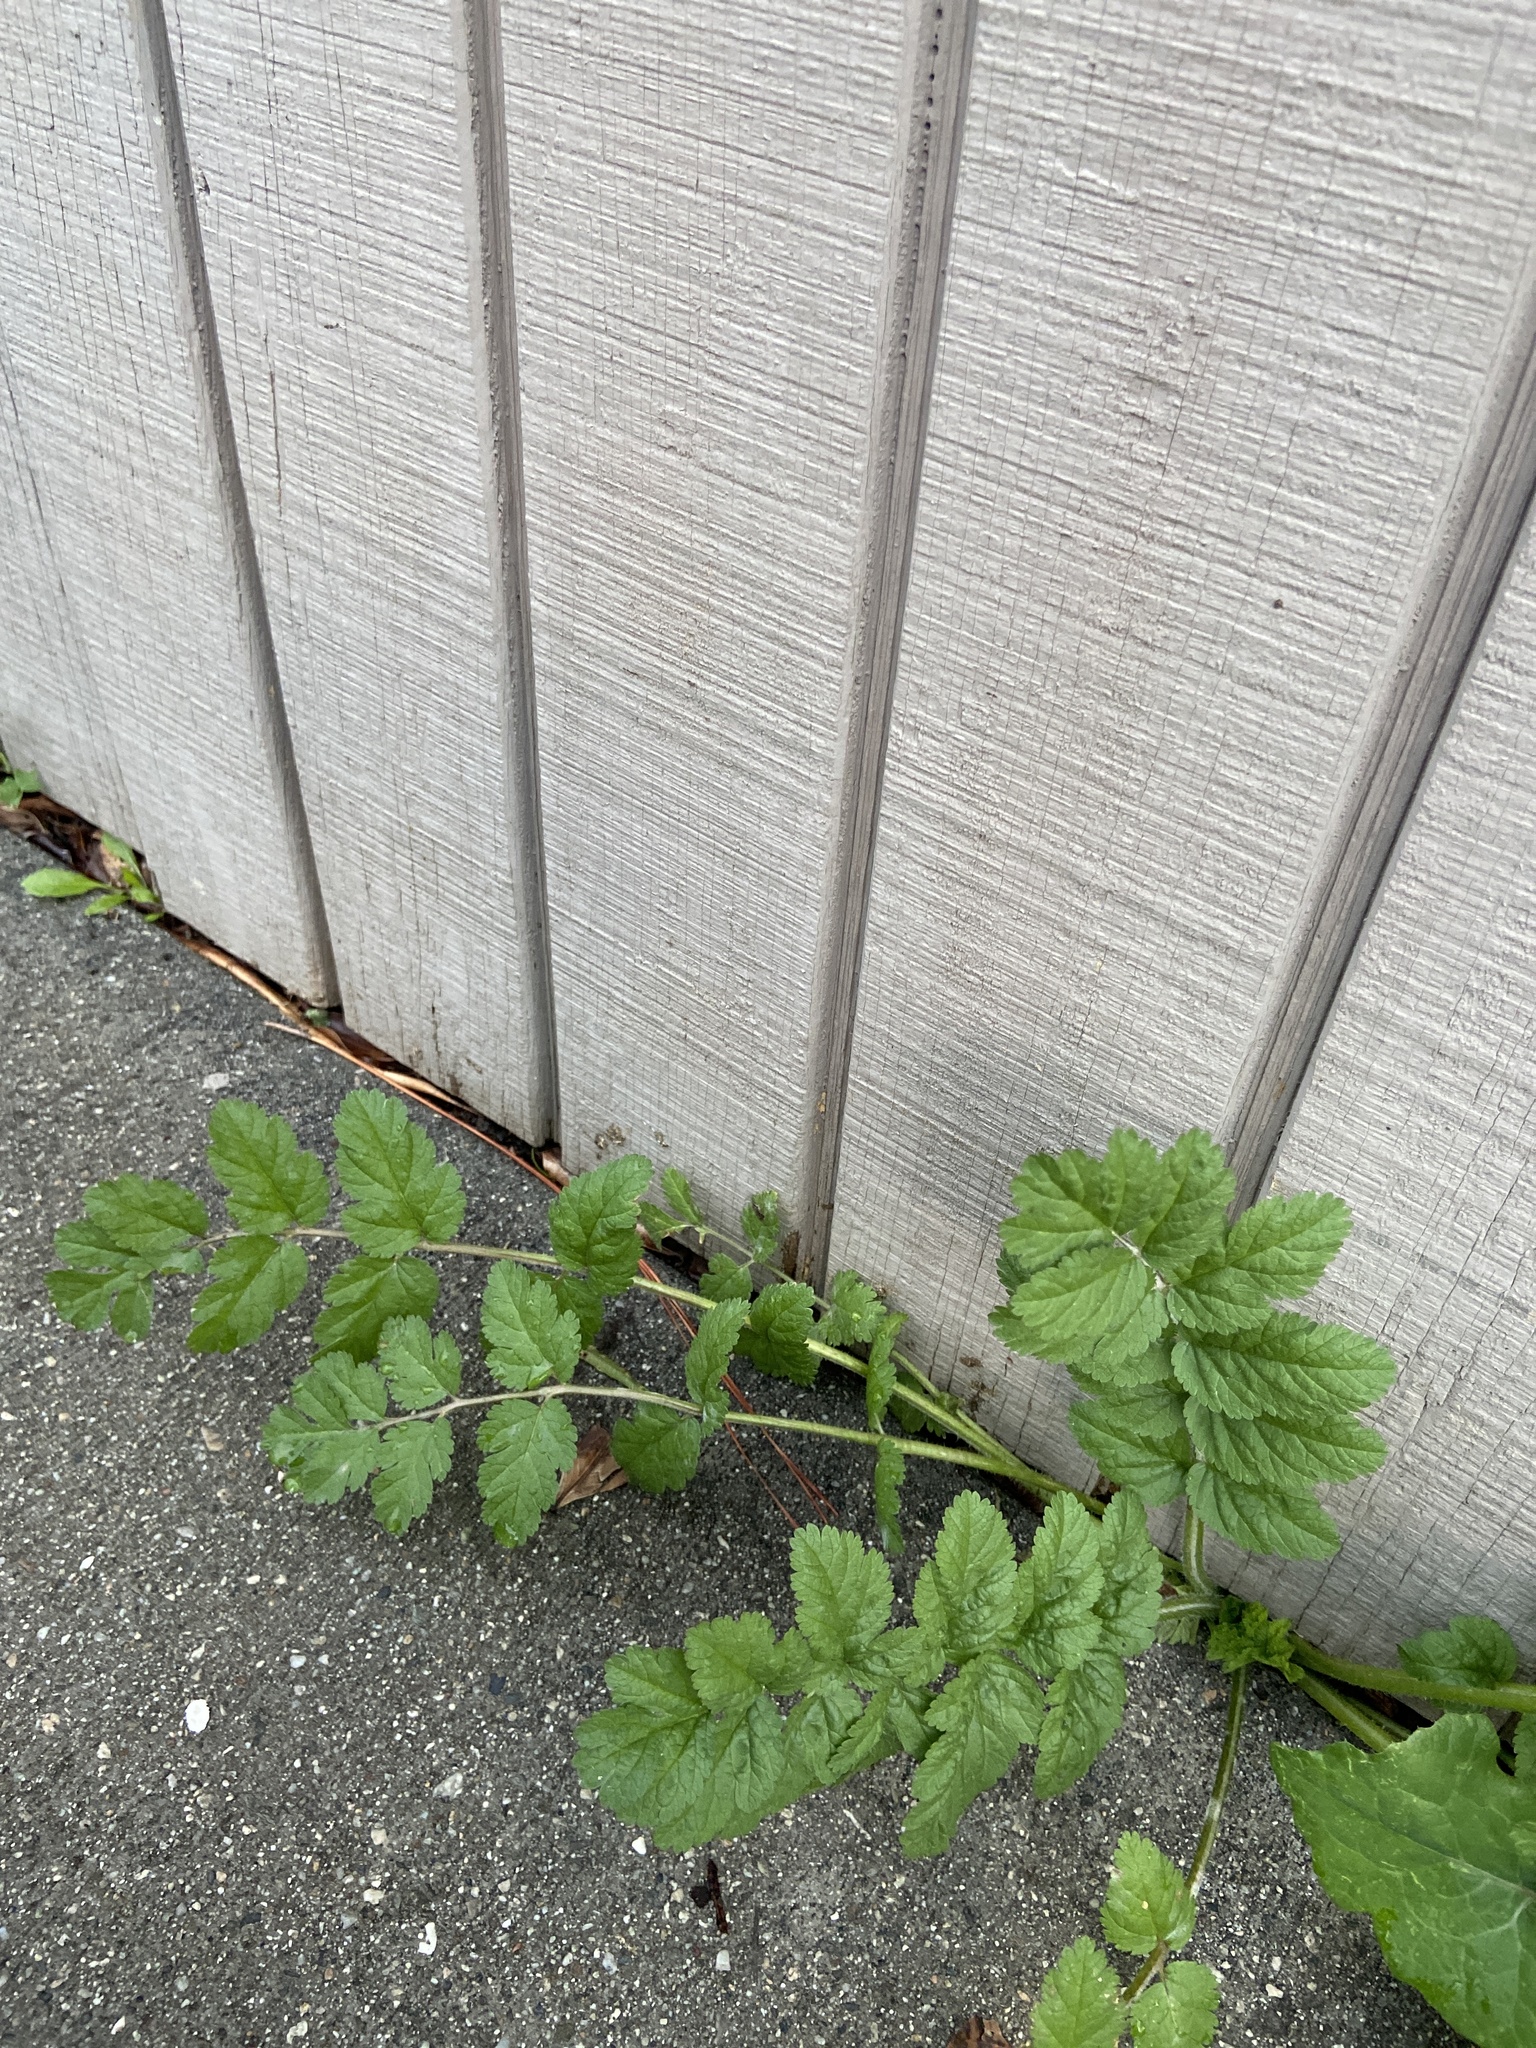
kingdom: Plantae
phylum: Tracheophyta
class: Magnoliopsida
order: Geraniales
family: Geraniaceae
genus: Erodium
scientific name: Erodium moschatum
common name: Musk stork's-bill
